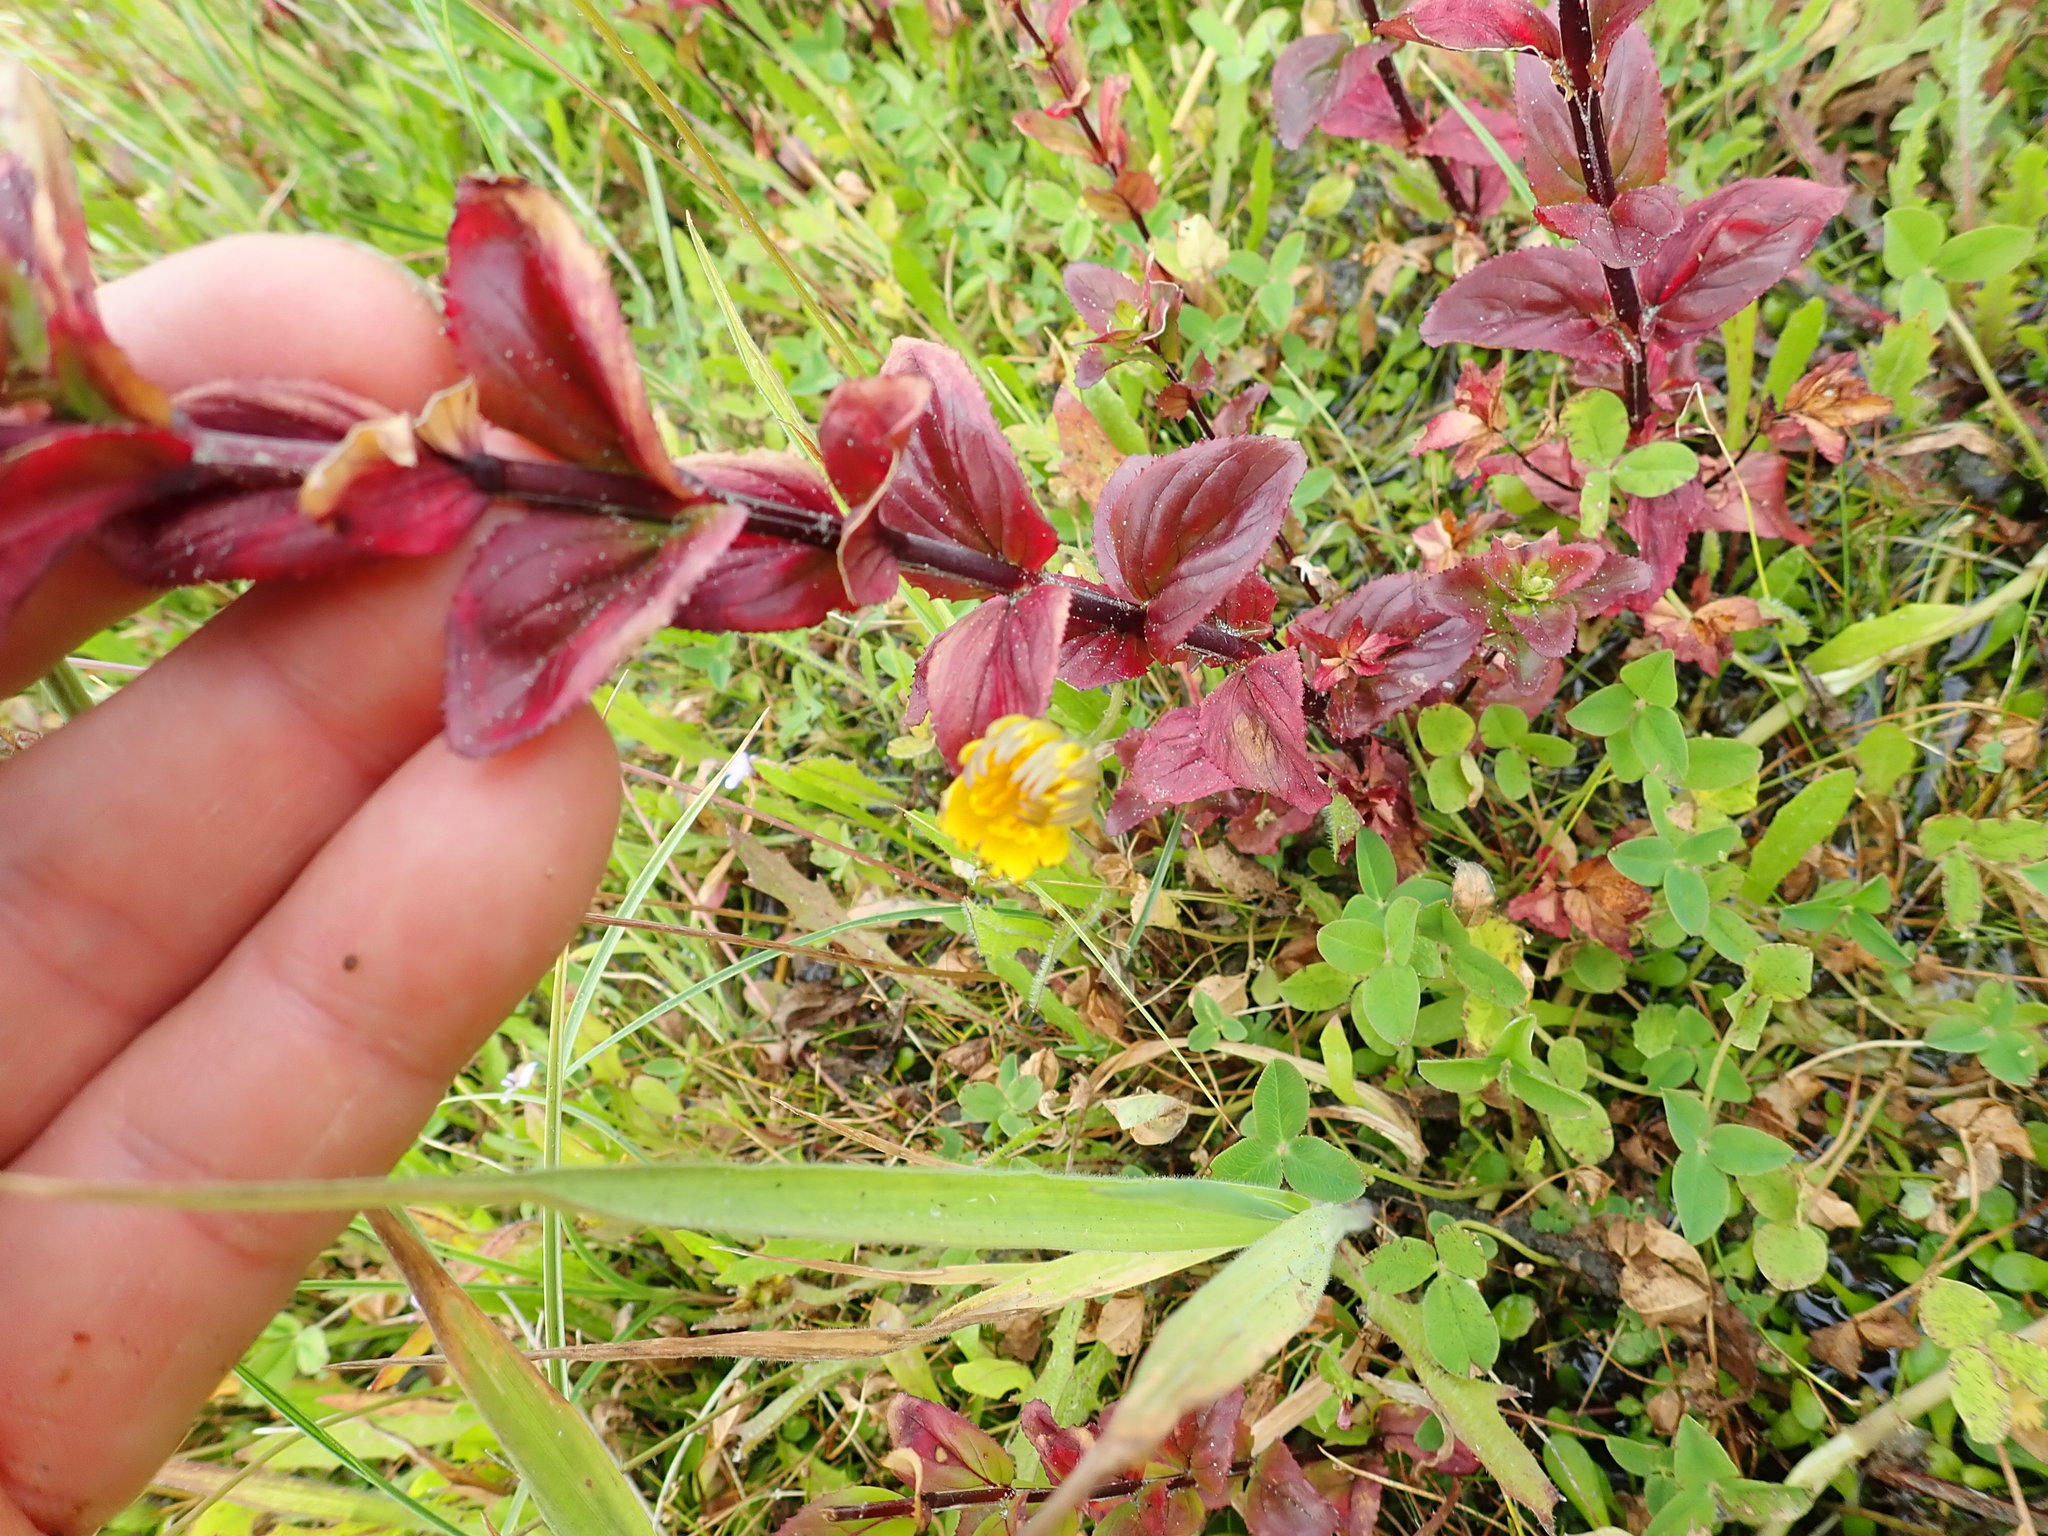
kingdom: Plantae
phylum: Tracheophyta
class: Magnoliopsida
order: Myrtales
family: Onagraceae
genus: Epilobium
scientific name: Epilobium billardiereanum
